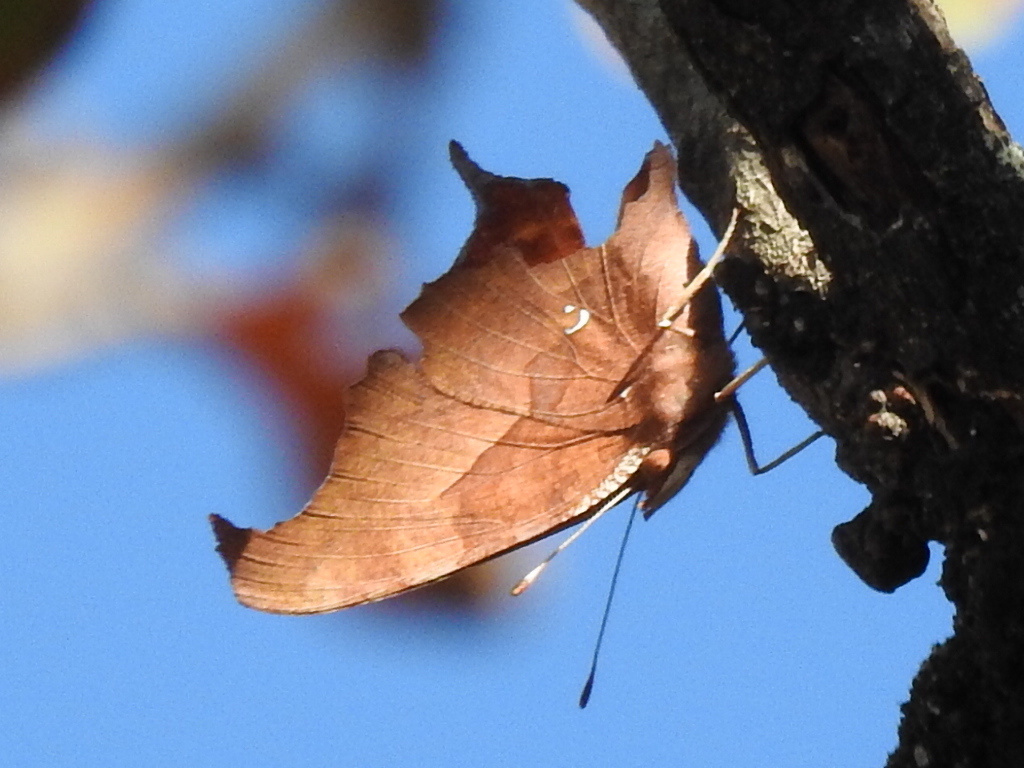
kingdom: Animalia
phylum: Arthropoda
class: Insecta
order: Lepidoptera
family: Nymphalidae
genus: Polygonia
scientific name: Polygonia interrogationis
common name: Question mark
